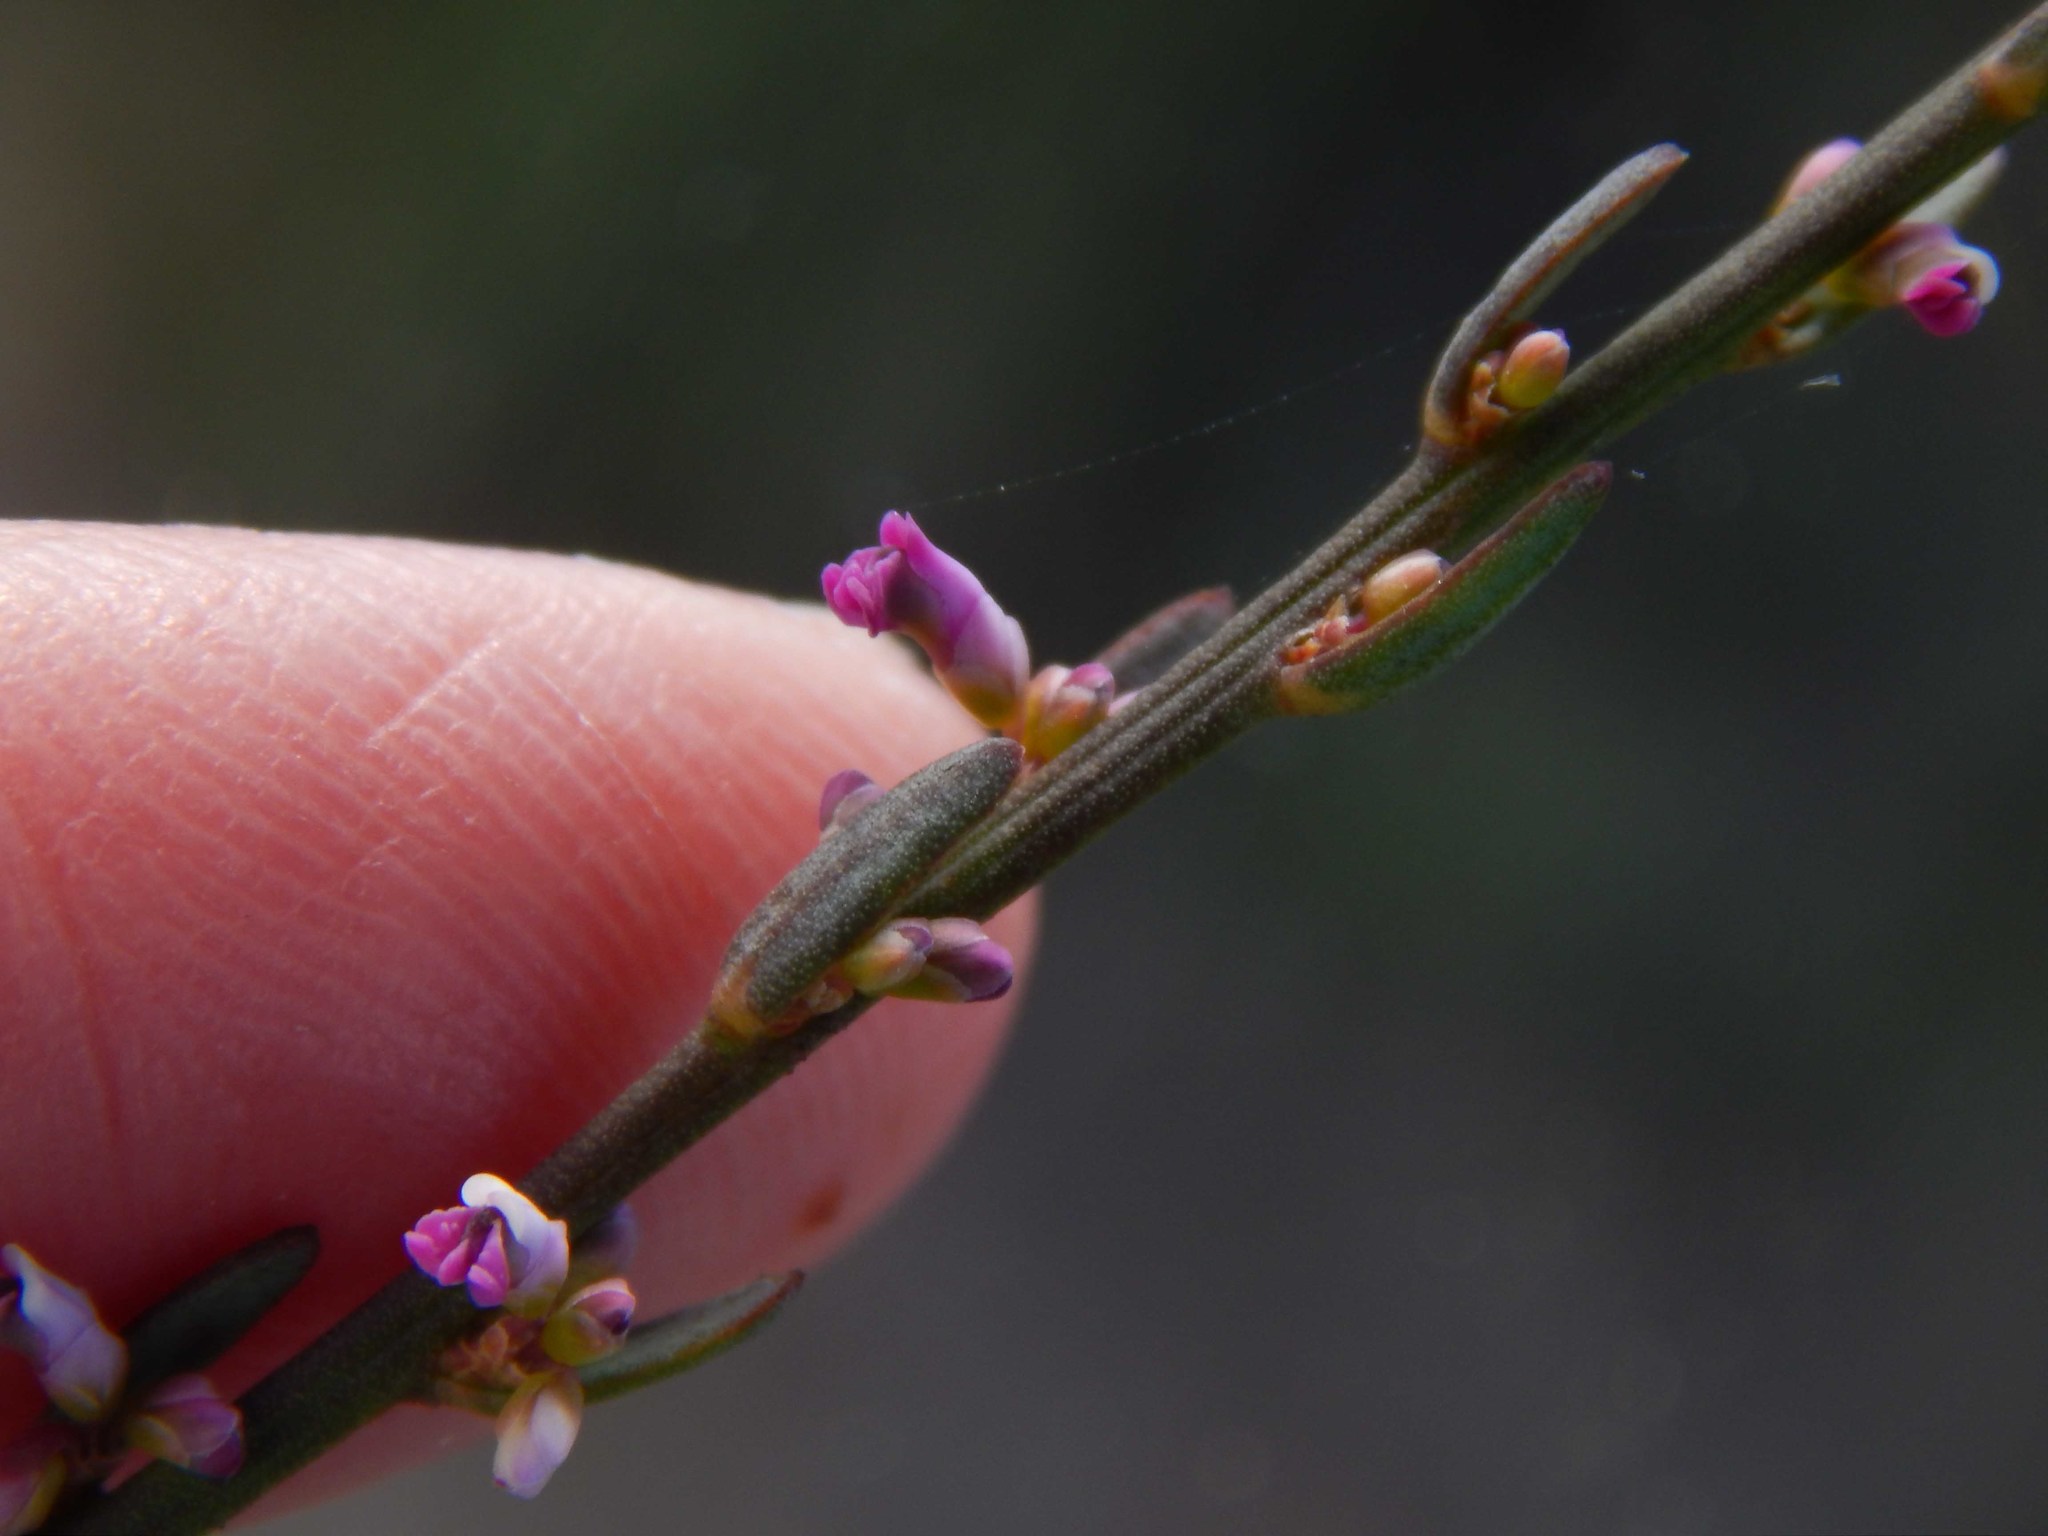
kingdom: Plantae
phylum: Tracheophyta
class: Magnoliopsida
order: Fabales
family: Polygalaceae
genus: Muraltia
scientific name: Muraltia striata
